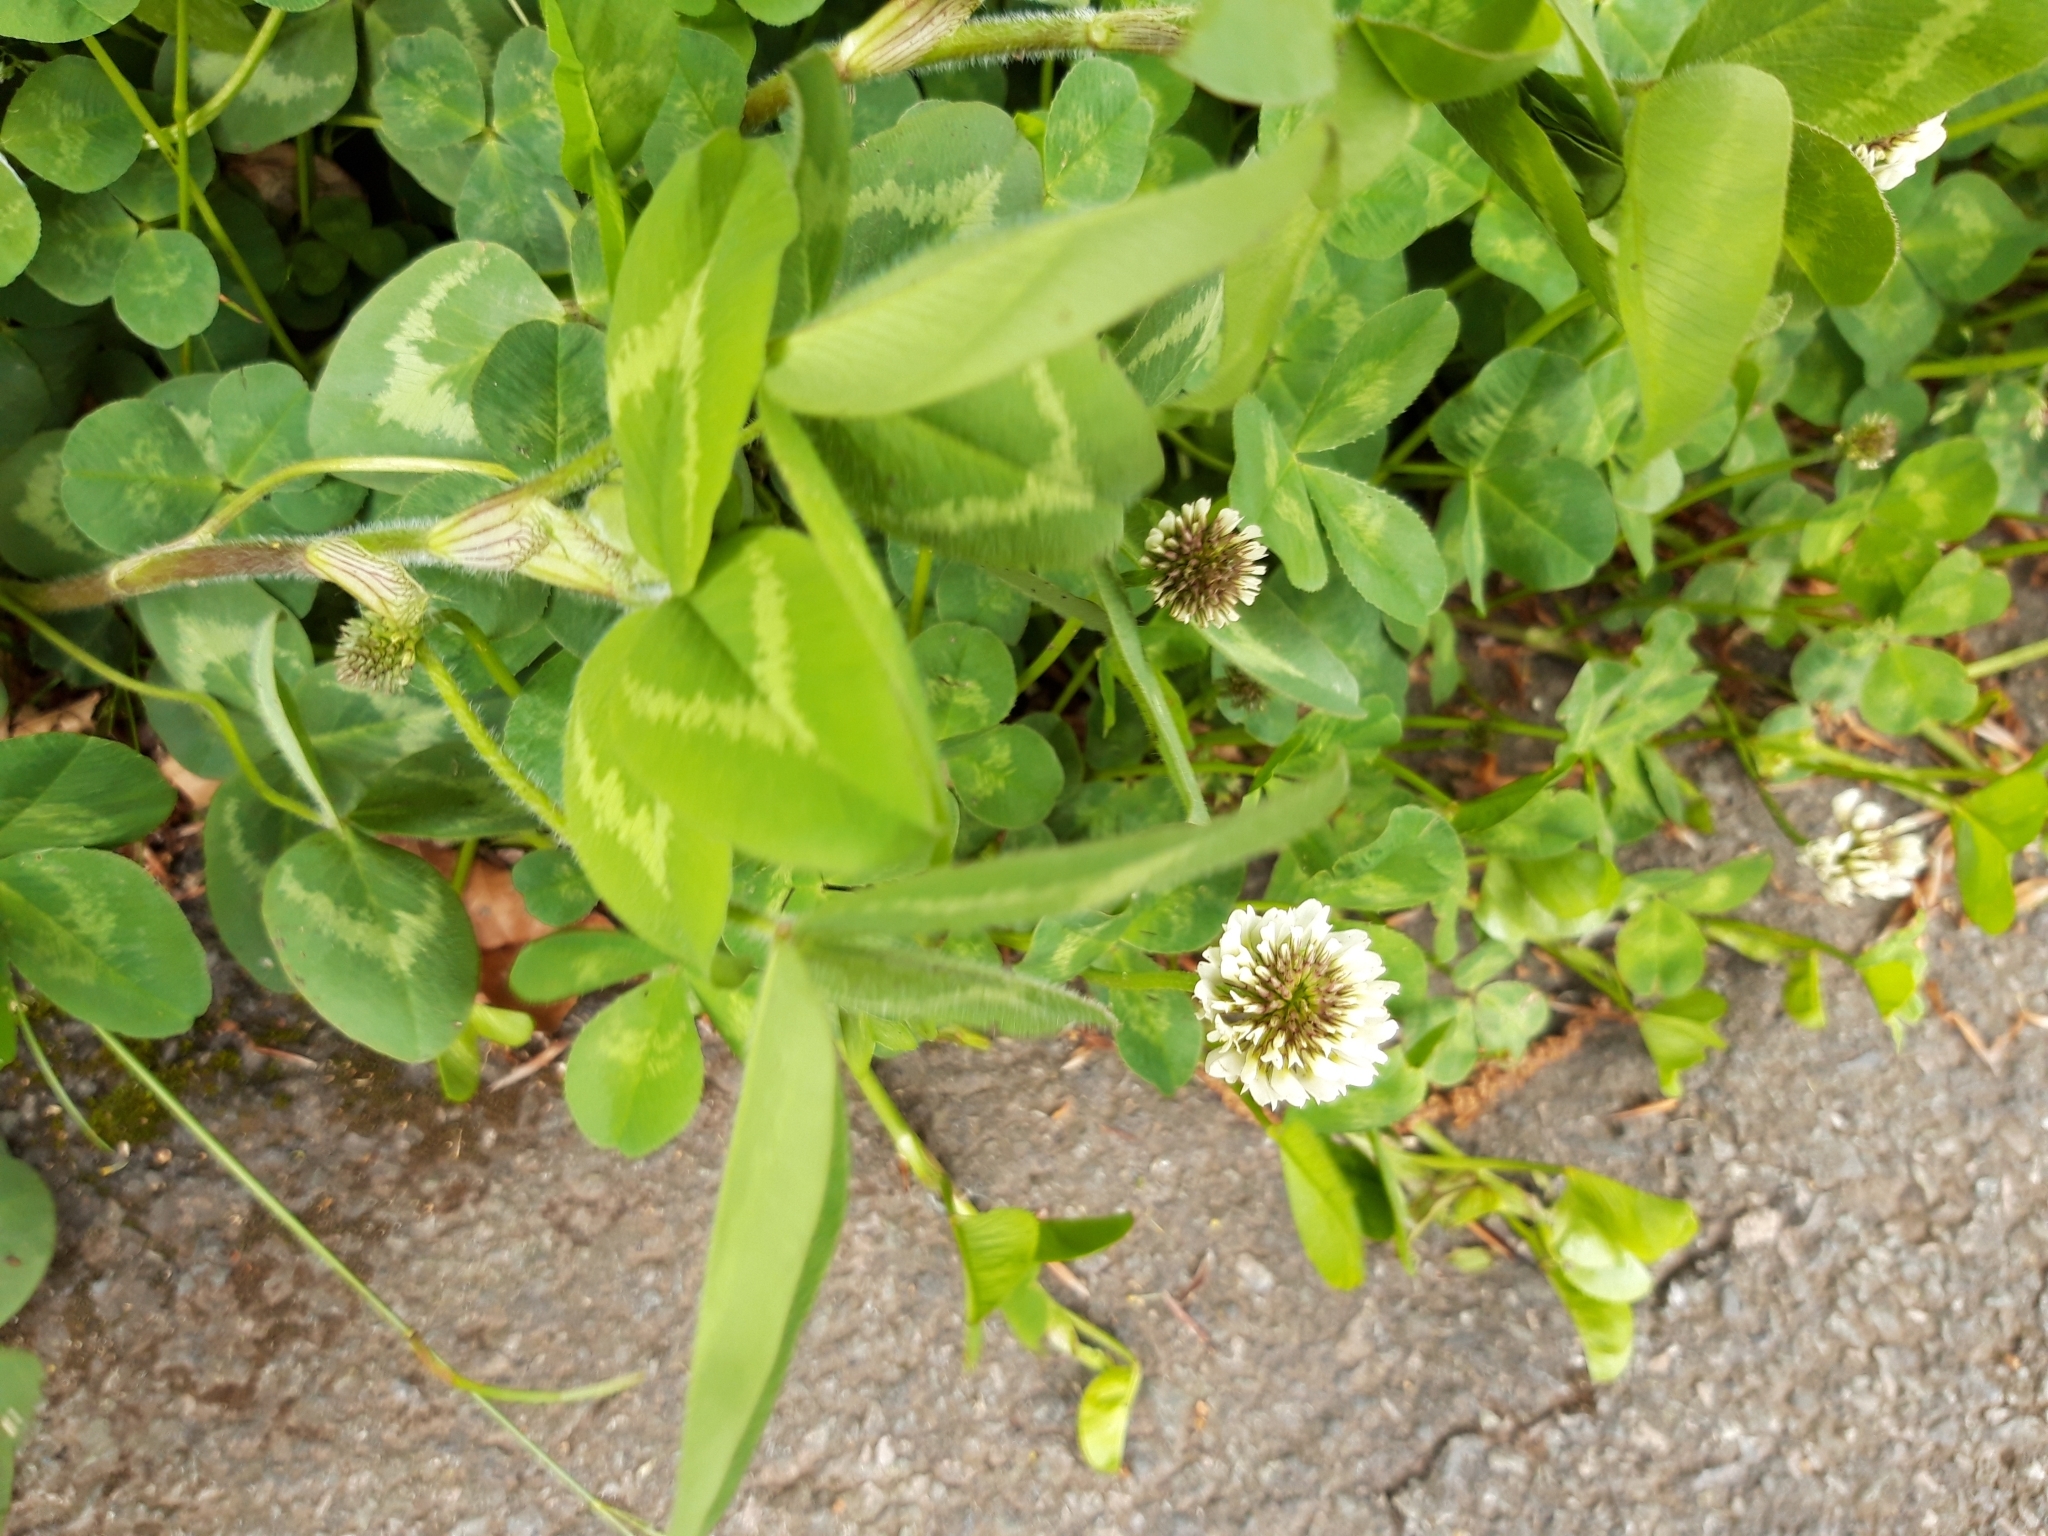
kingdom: Plantae
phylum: Tracheophyta
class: Magnoliopsida
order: Fabales
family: Fabaceae
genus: Trifolium
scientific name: Trifolium repens
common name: White clover
